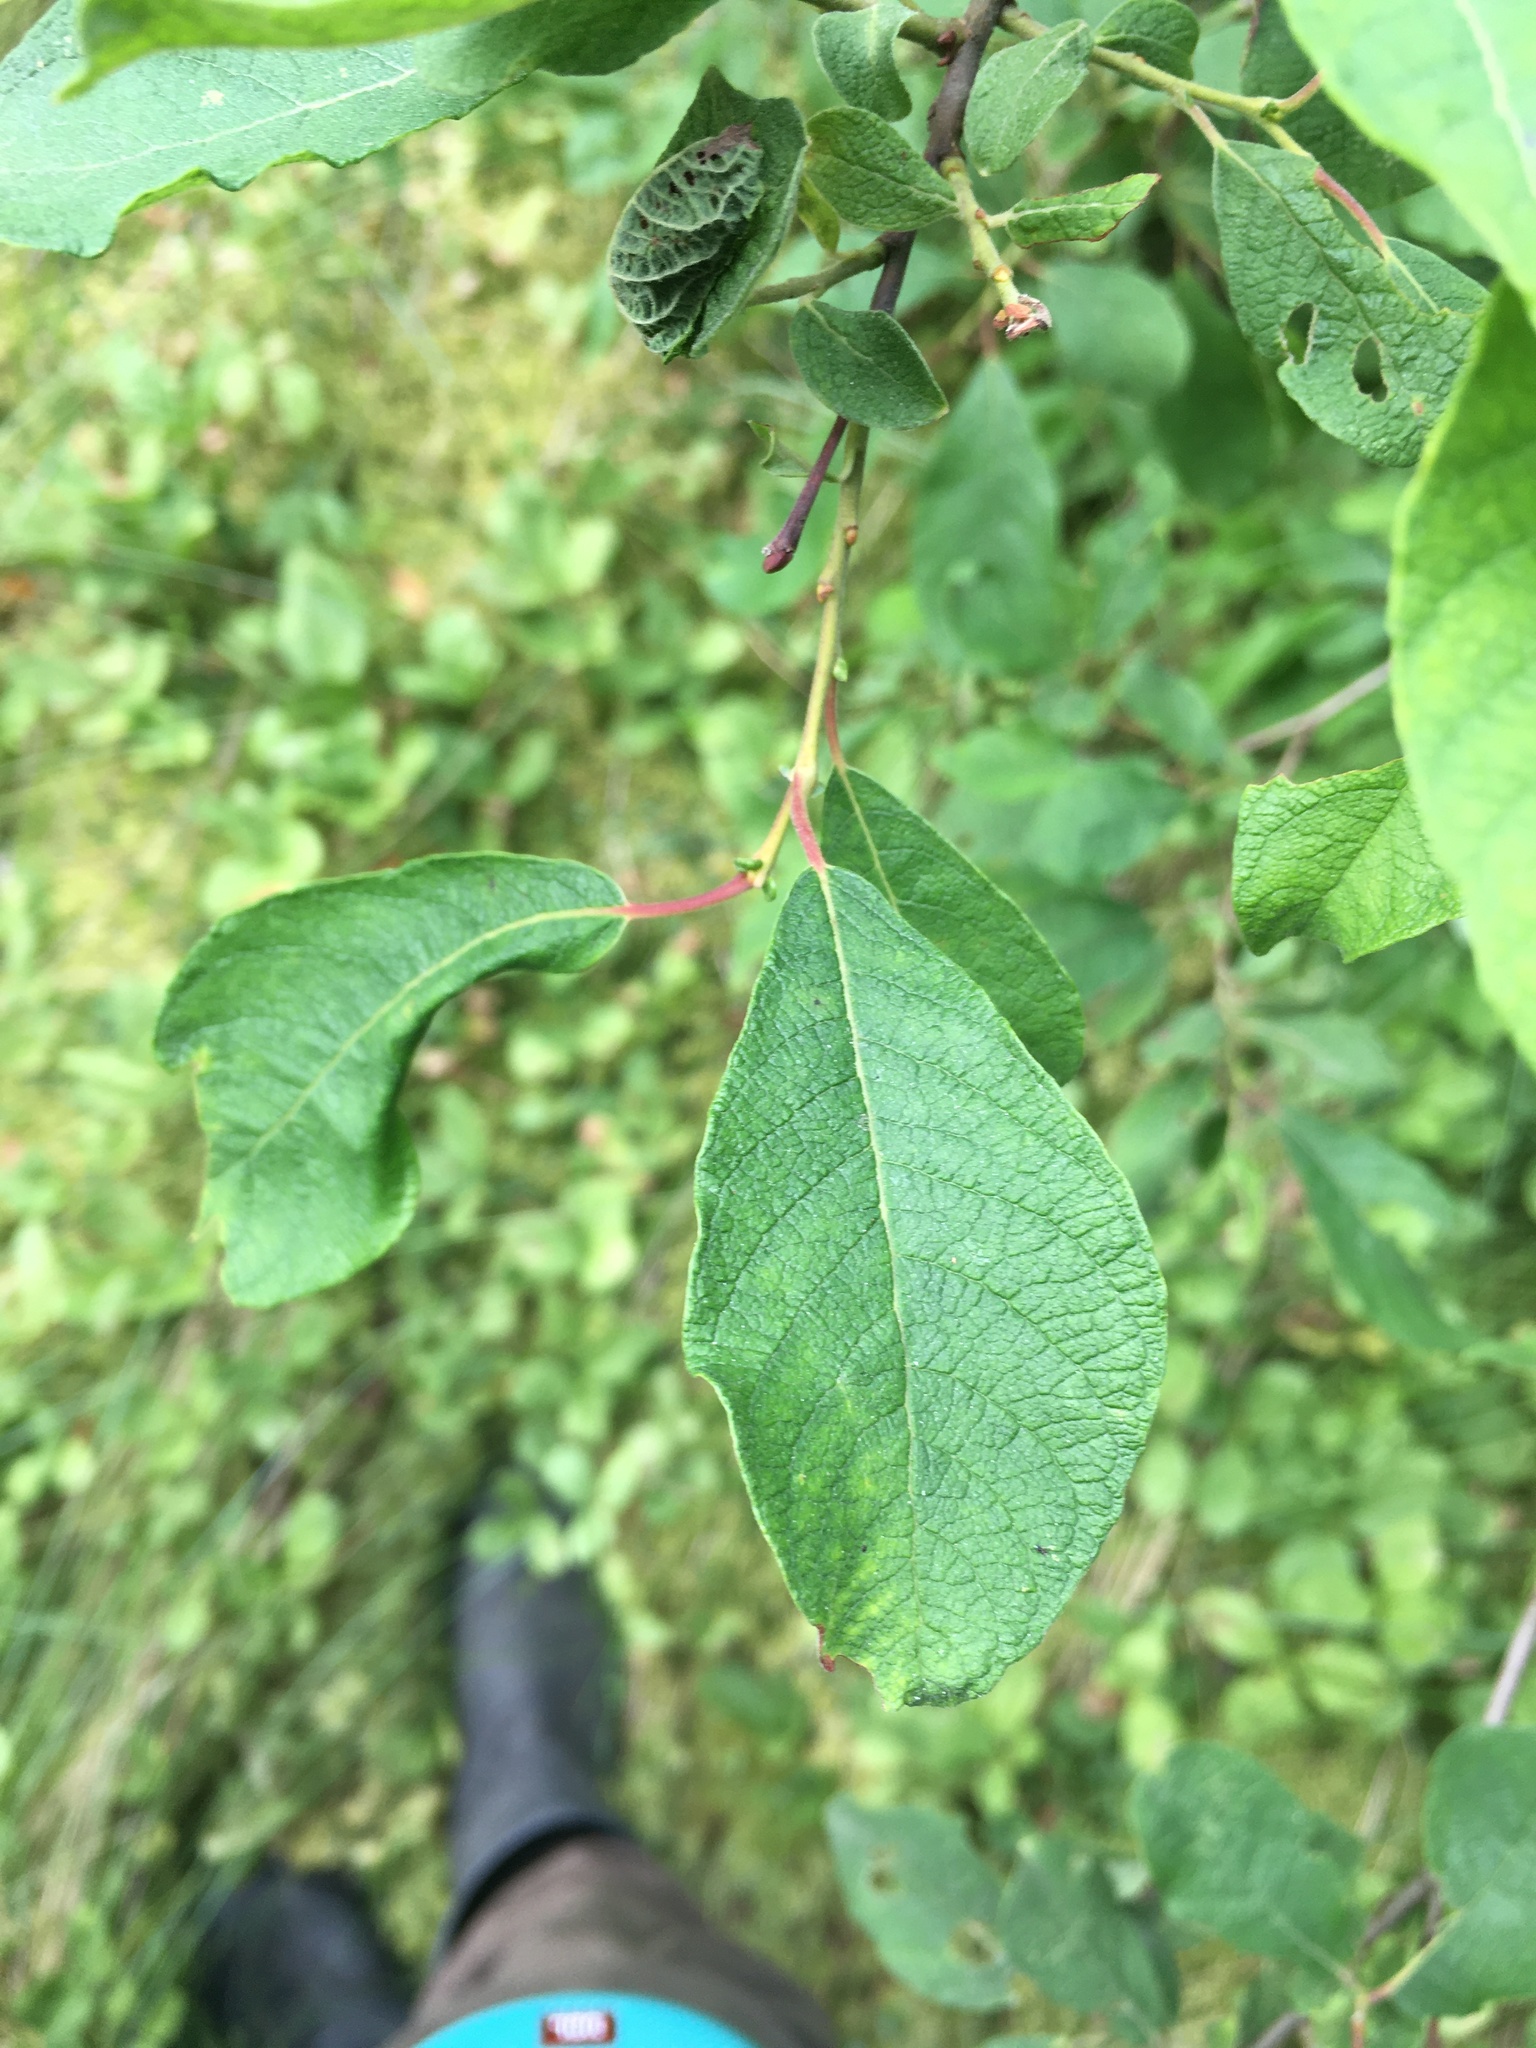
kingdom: Plantae
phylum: Tracheophyta
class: Magnoliopsida
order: Malpighiales
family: Salicaceae
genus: Salix
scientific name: Salix caprea
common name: Goat willow
